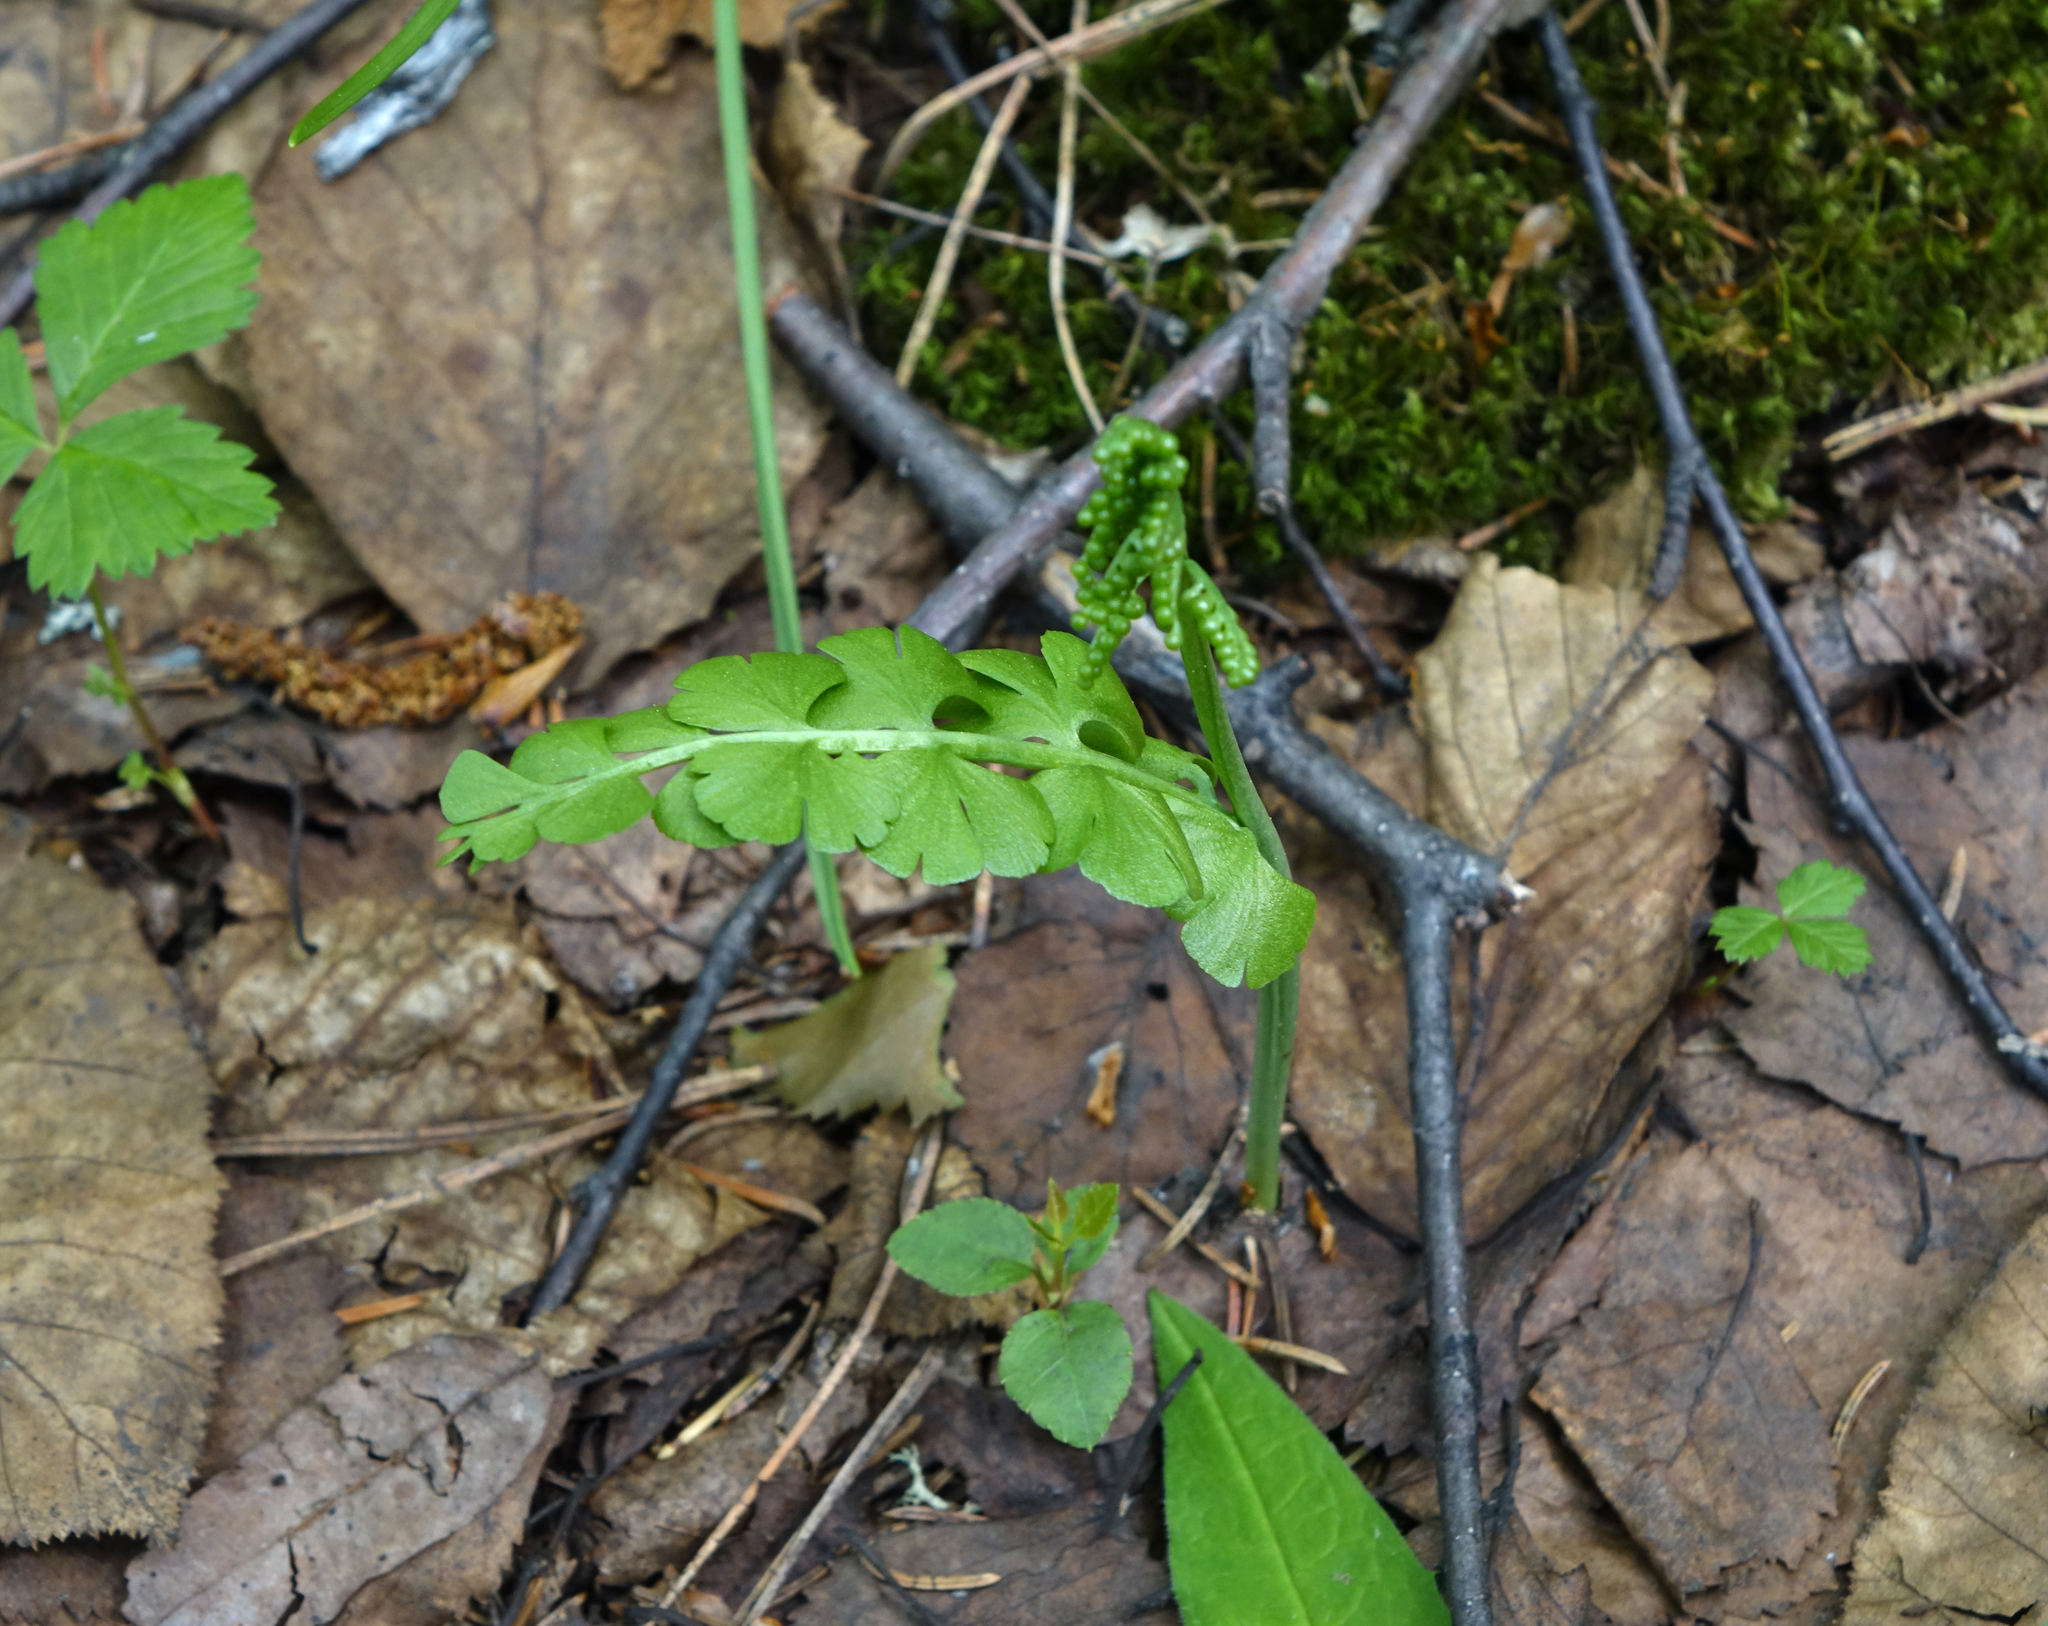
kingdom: Plantae
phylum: Tracheophyta
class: Polypodiopsida
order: Ophioglossales
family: Ophioglossaceae
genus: Botrychium
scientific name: Botrychium lunaria
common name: Moonwort
